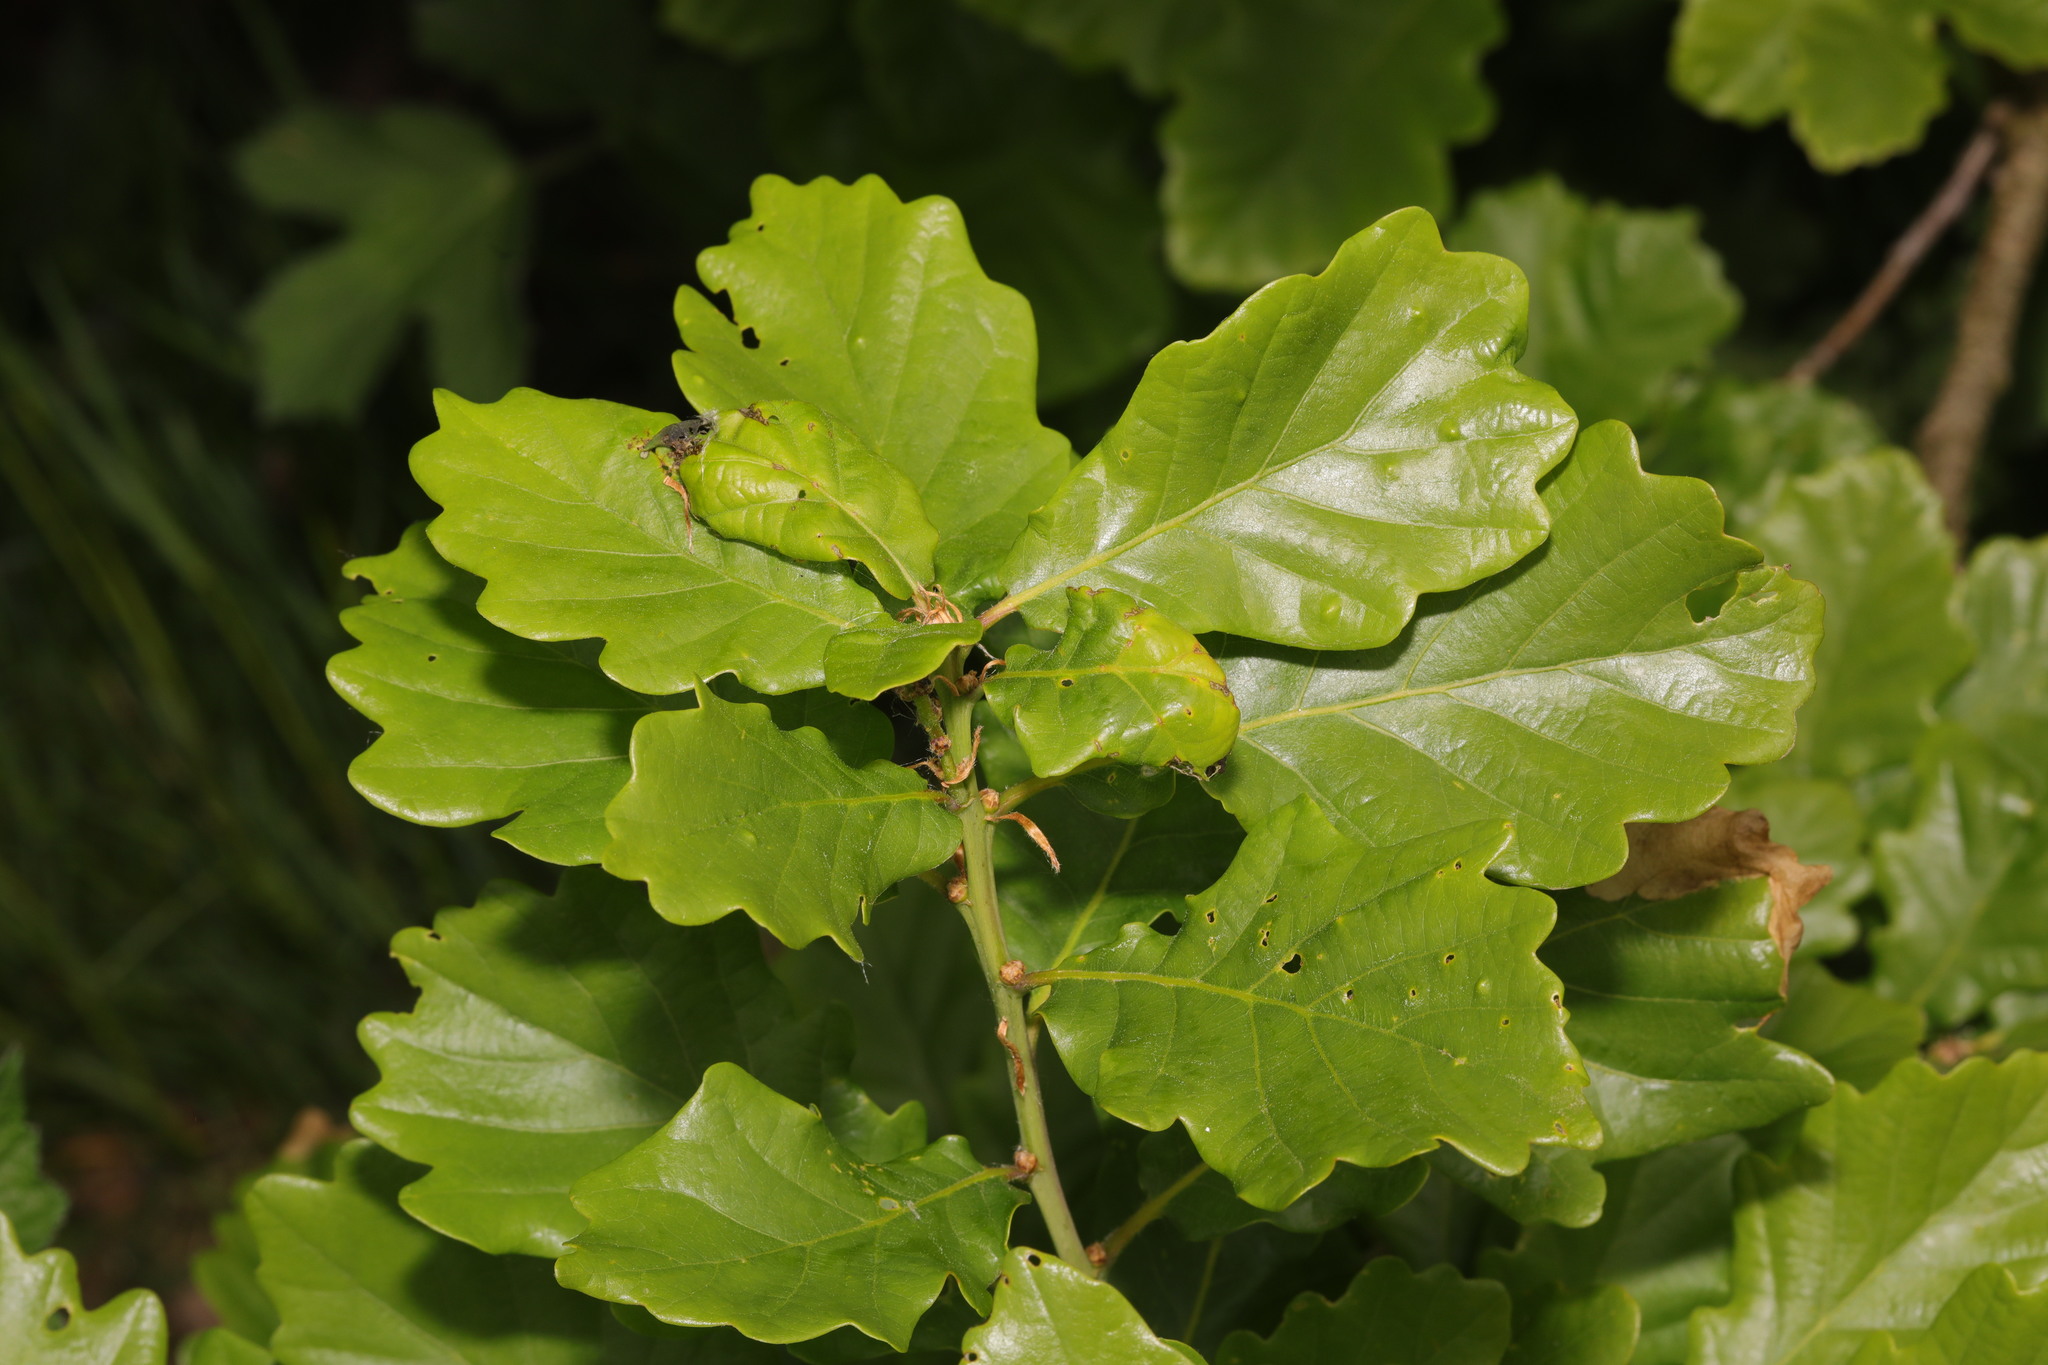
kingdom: Plantae
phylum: Tracheophyta
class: Magnoliopsida
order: Fagales
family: Fagaceae
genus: Quercus
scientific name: Quercus robur
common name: Pedunculate oak
